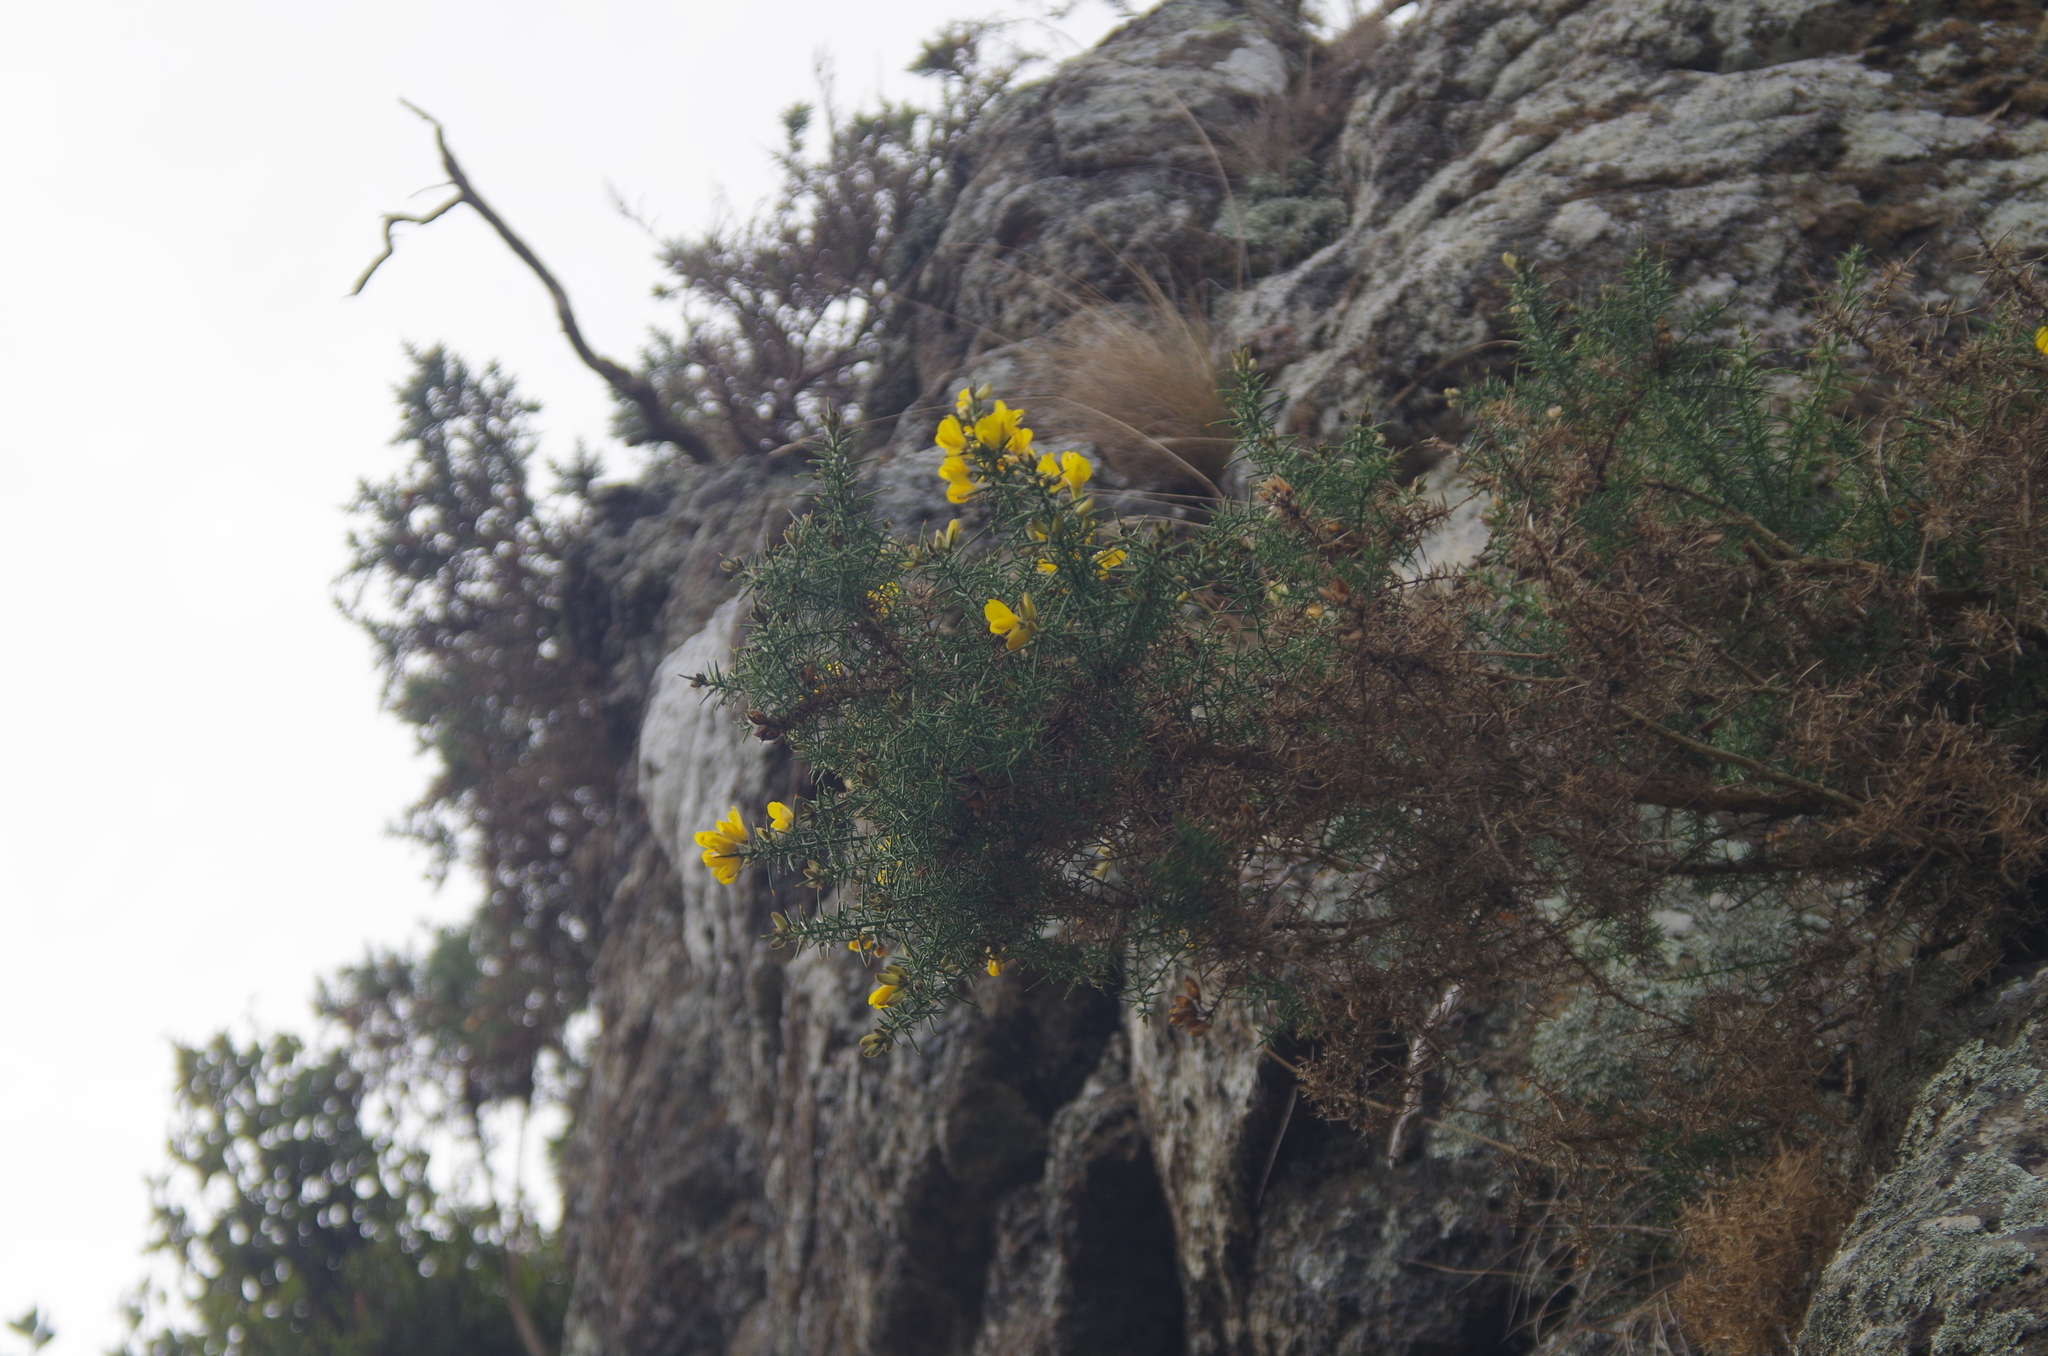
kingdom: Plantae
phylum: Tracheophyta
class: Magnoliopsida
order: Fabales
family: Fabaceae
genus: Ulex
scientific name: Ulex europaeus
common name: Common gorse
